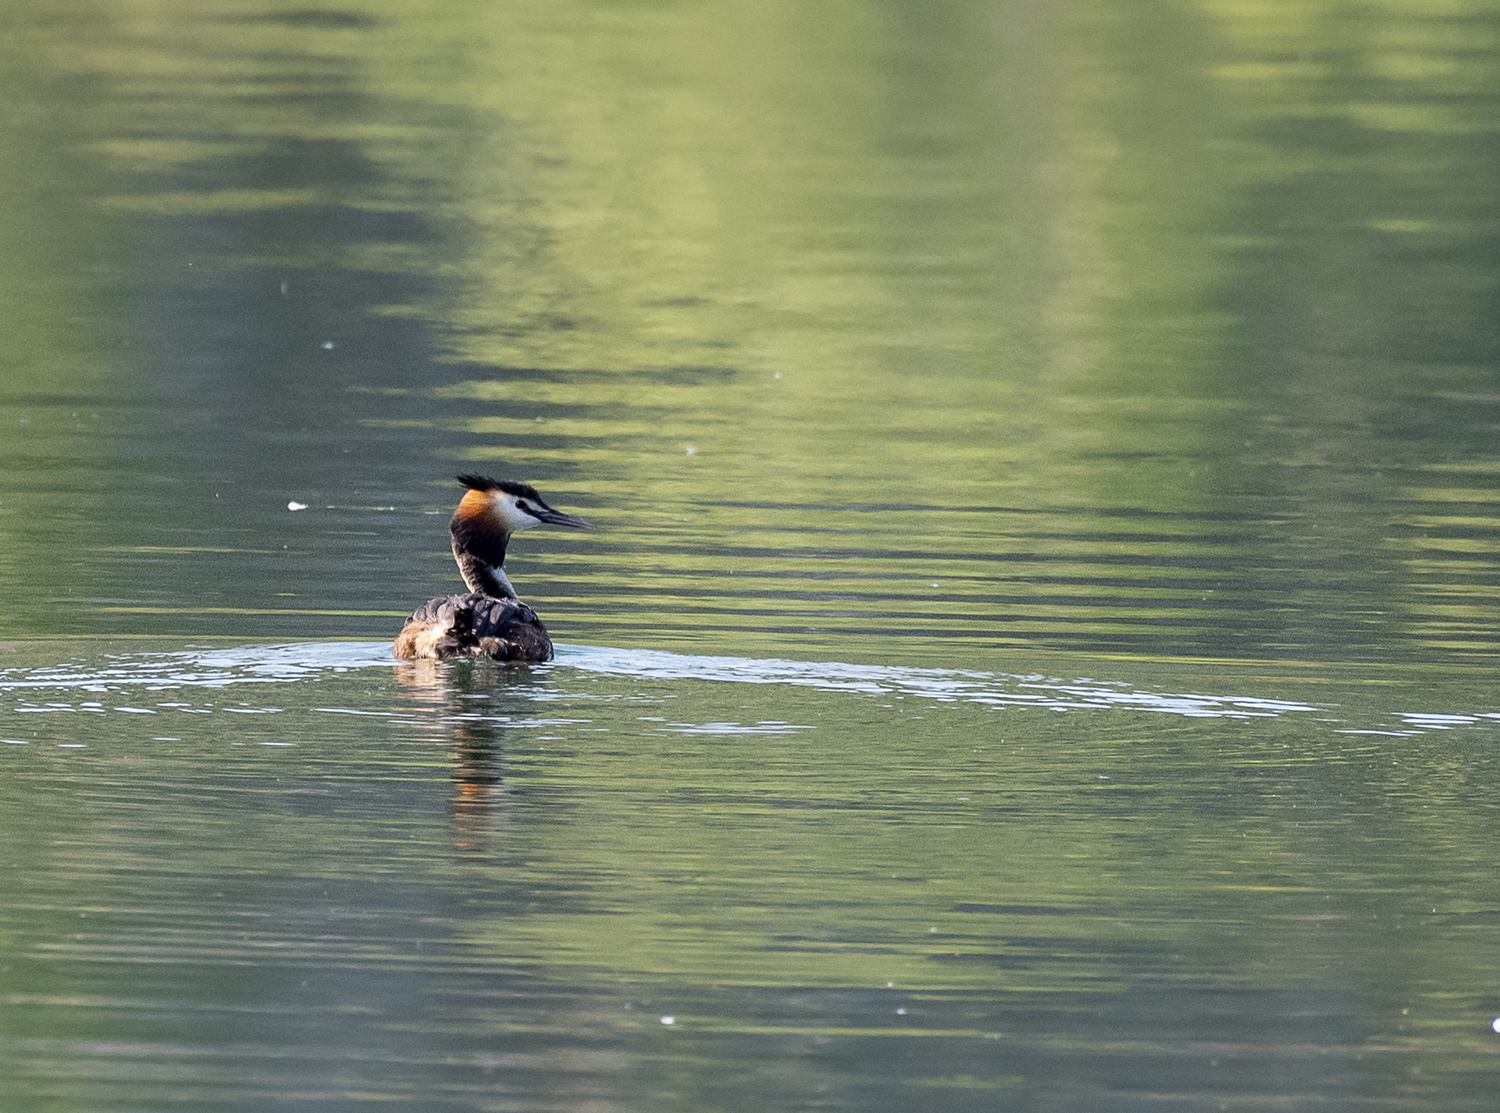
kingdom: Animalia
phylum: Chordata
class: Aves
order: Podicipediformes
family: Podicipedidae
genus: Podiceps
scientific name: Podiceps cristatus
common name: Great crested grebe
